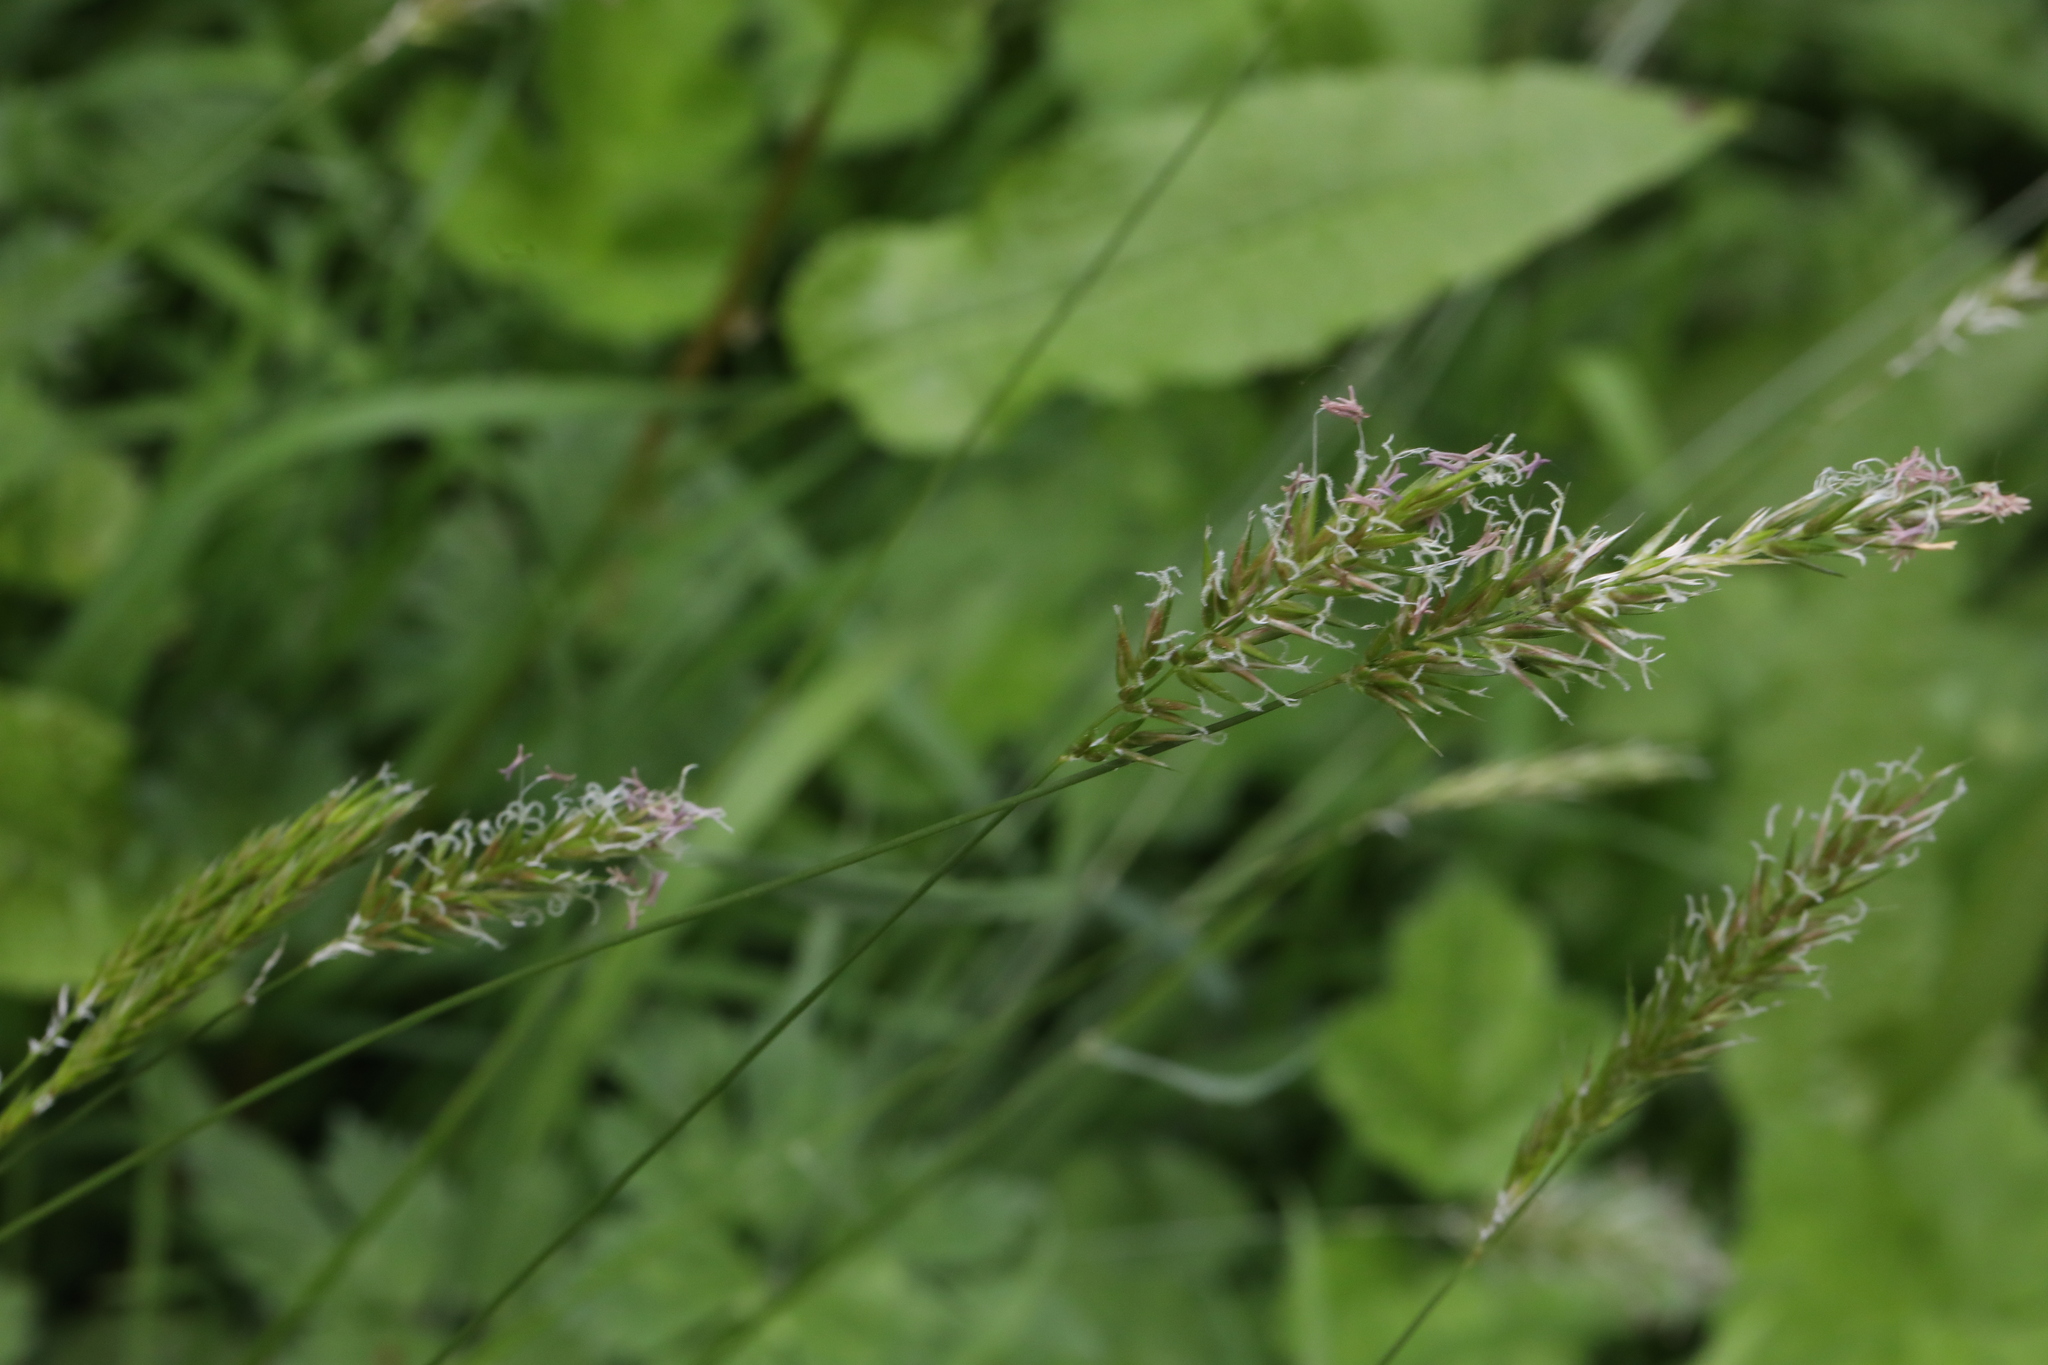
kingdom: Plantae
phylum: Tracheophyta
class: Liliopsida
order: Poales
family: Poaceae
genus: Anthoxanthum
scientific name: Anthoxanthum odoratum
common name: Sweet vernalgrass
